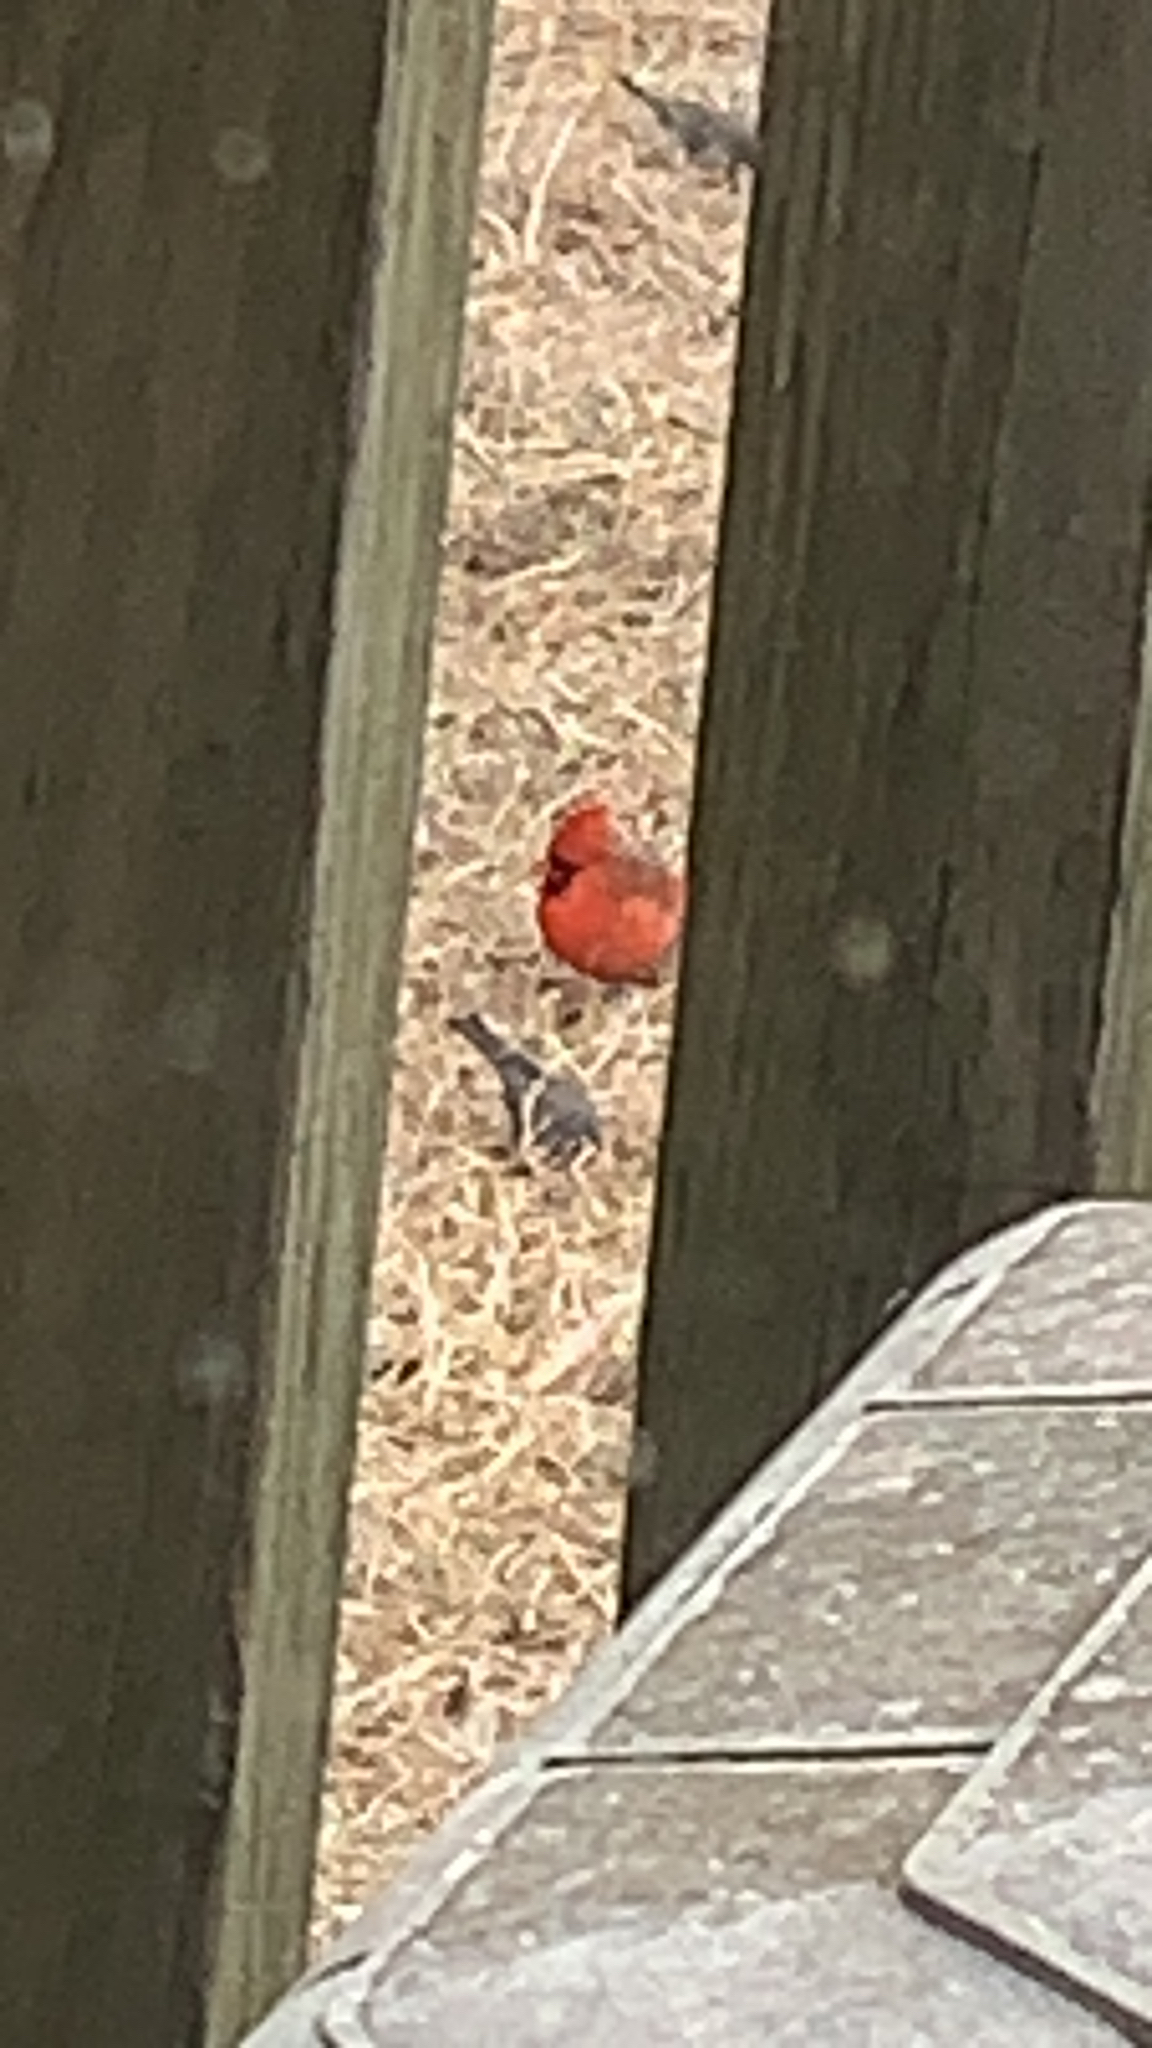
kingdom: Animalia
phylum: Chordata
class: Aves
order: Passeriformes
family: Cardinalidae
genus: Cardinalis
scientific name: Cardinalis cardinalis
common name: Northern cardinal
